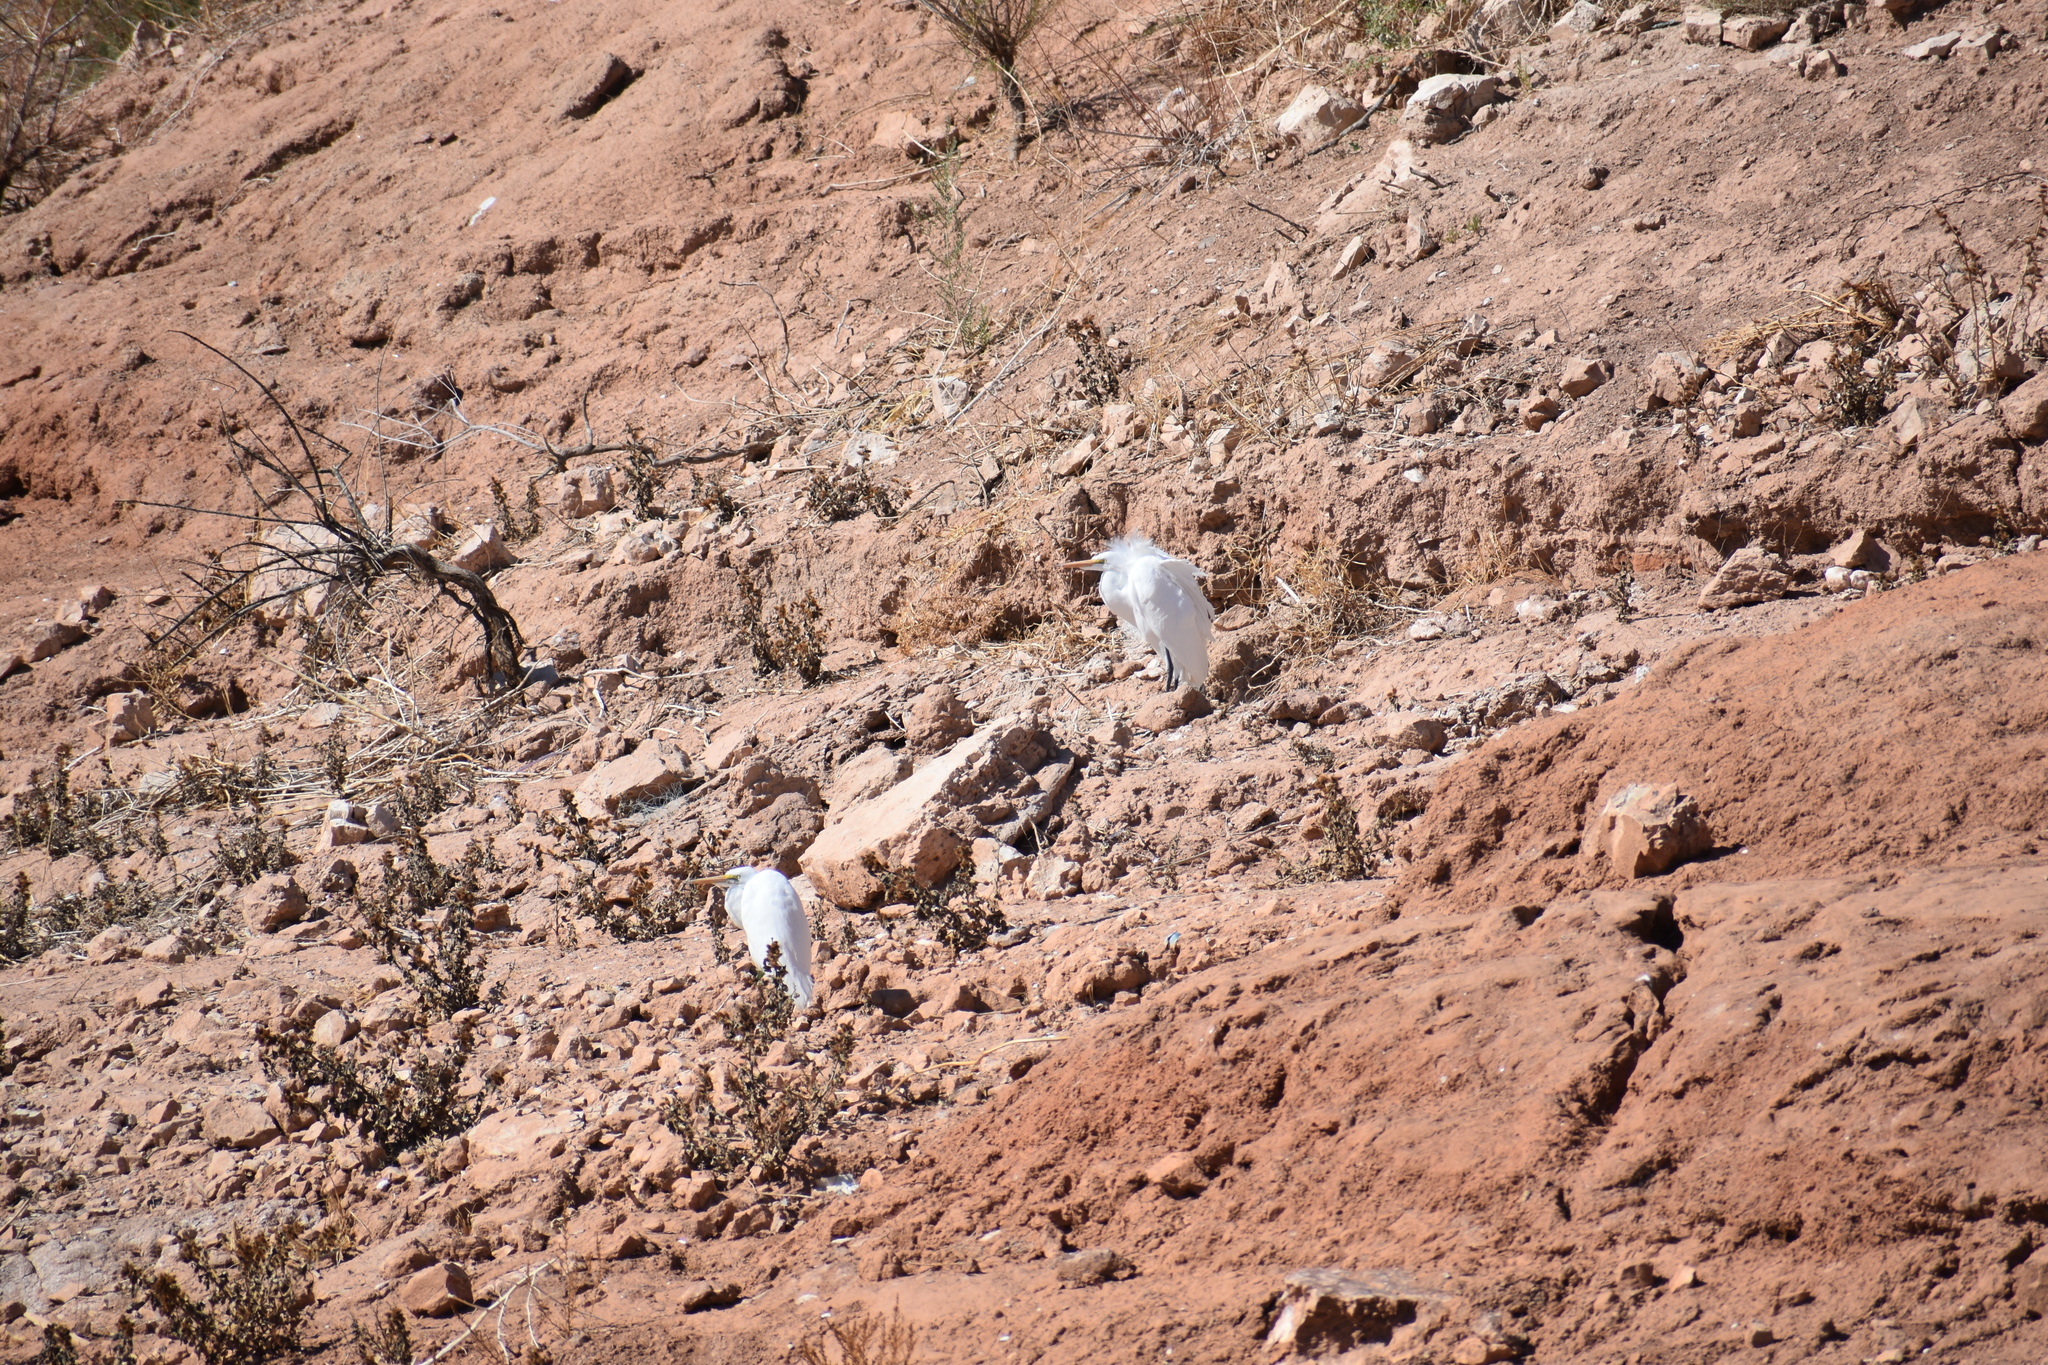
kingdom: Animalia
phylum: Chordata
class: Aves
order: Pelecaniformes
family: Ardeidae
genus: Ardea
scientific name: Ardea alba
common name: Great egret
